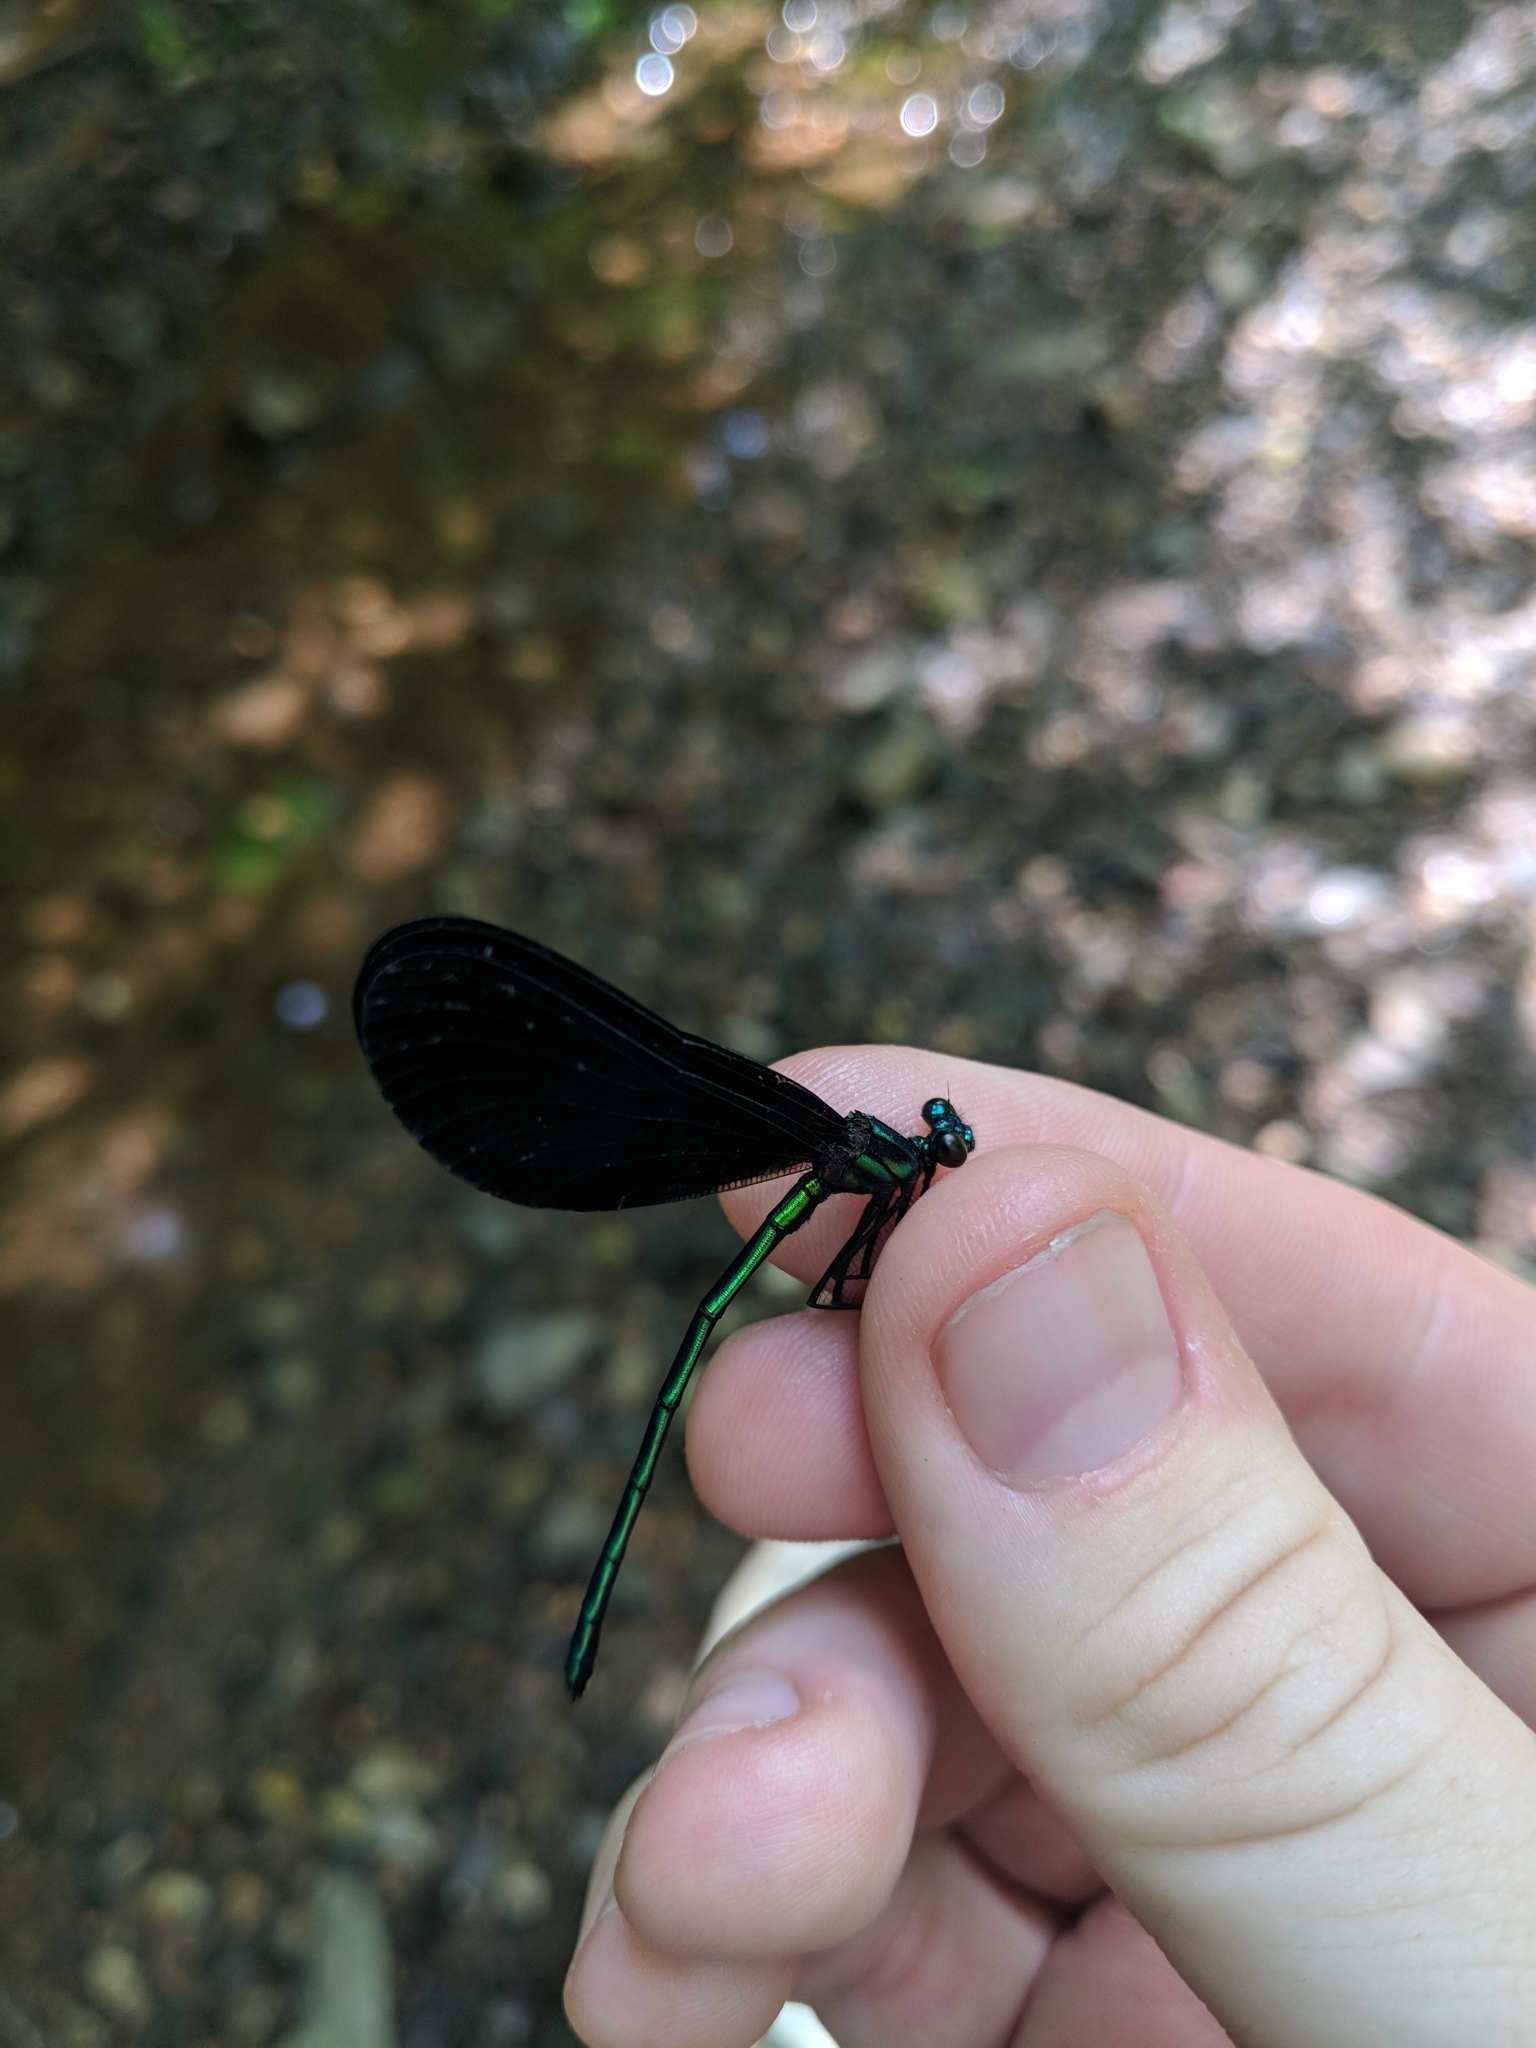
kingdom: Animalia
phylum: Arthropoda
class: Insecta
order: Odonata
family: Calopterygidae
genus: Calopteryx
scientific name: Calopteryx maculata
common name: Ebony jewelwing
